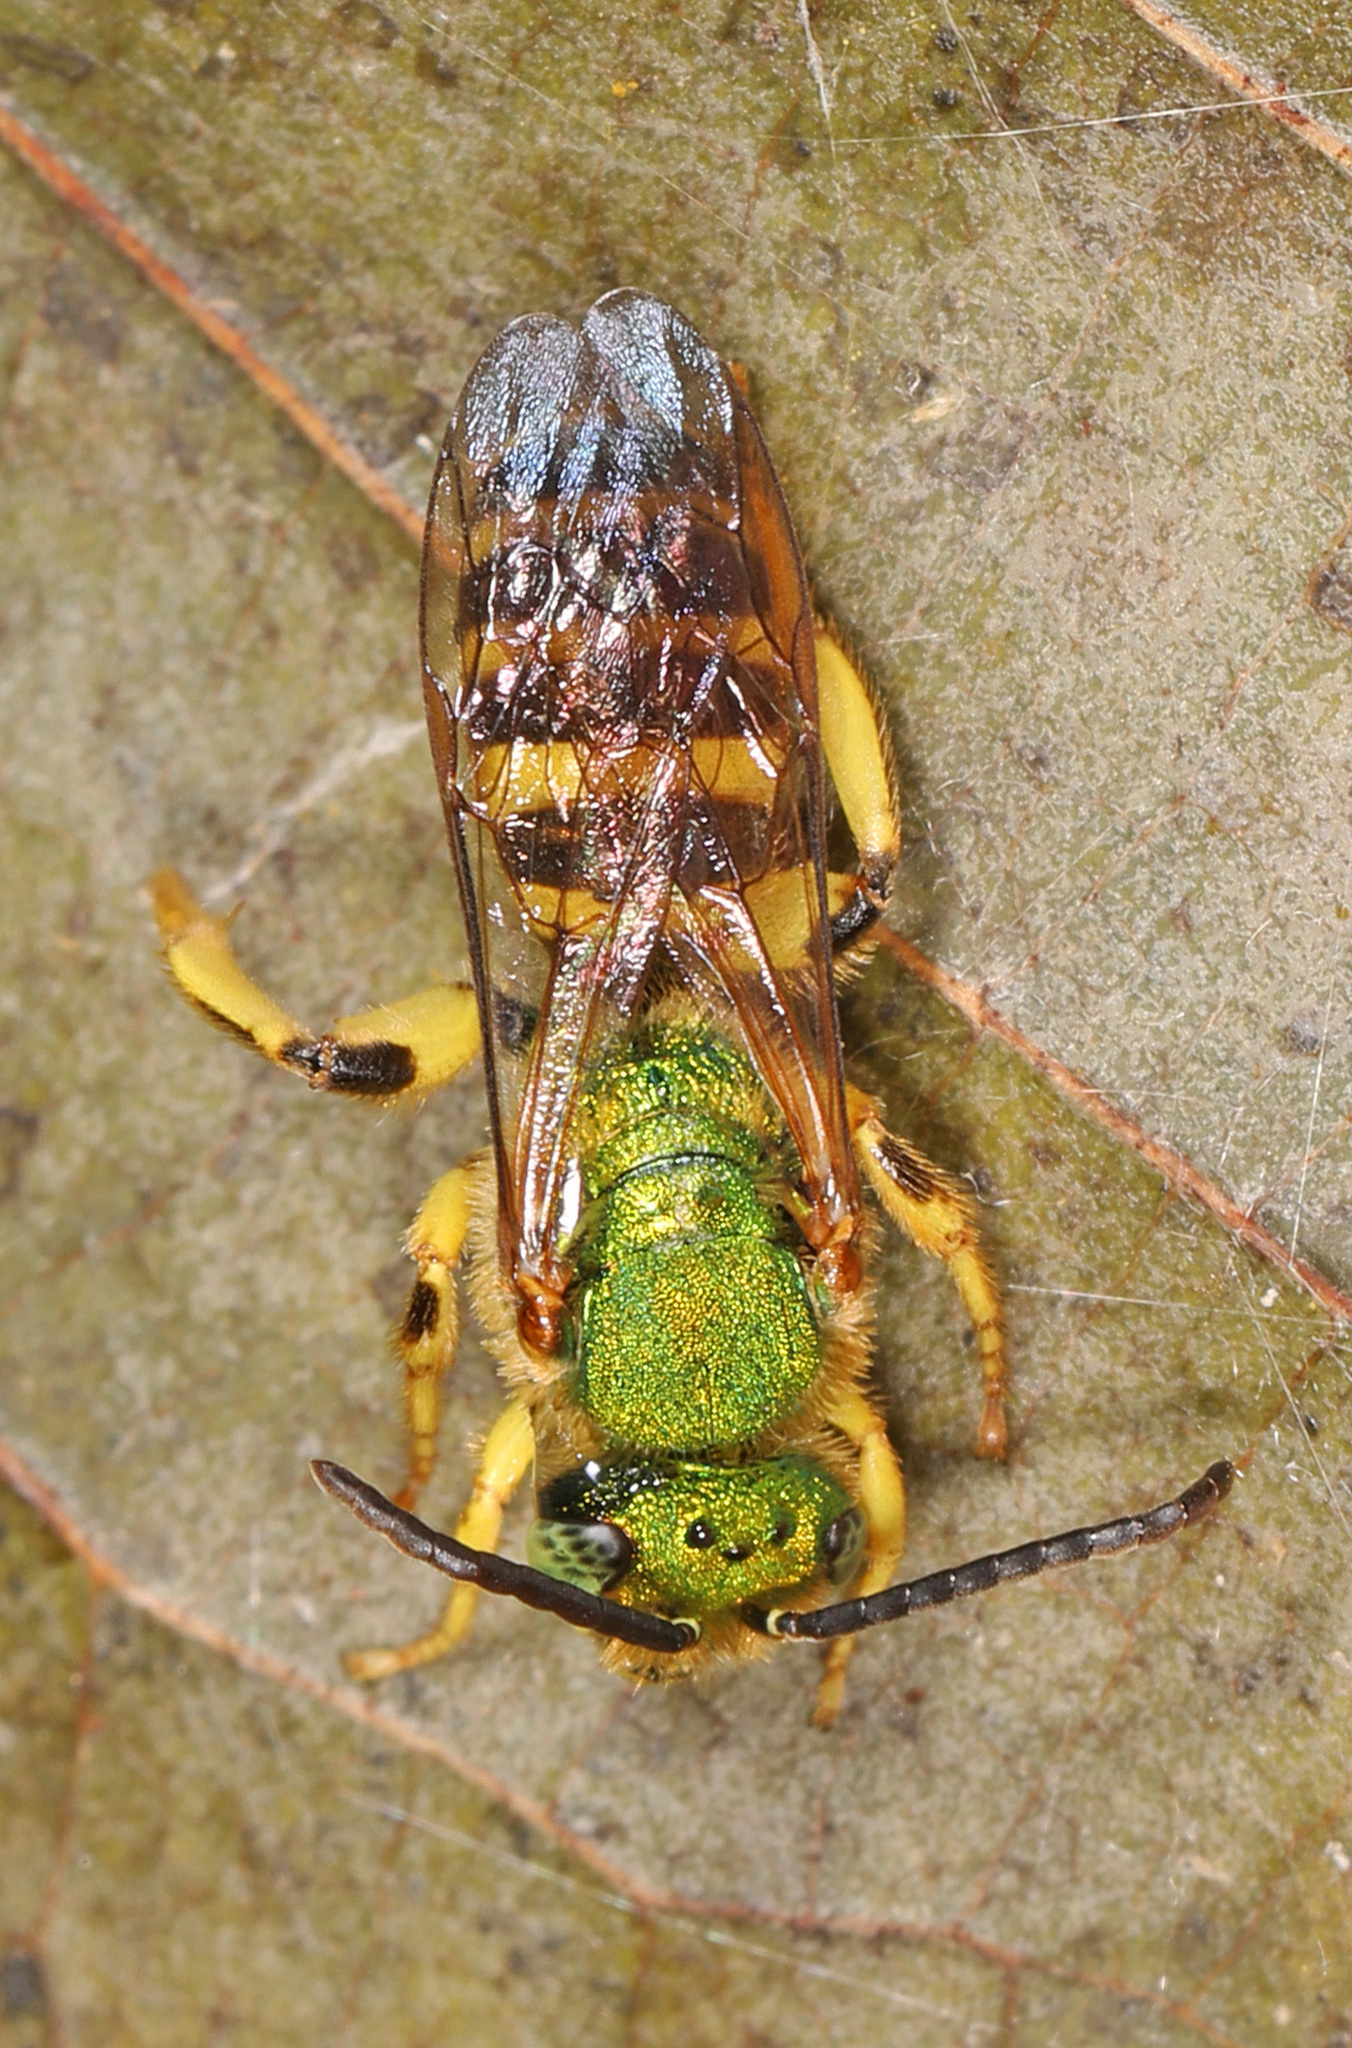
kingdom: Animalia
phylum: Arthropoda
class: Insecta
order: Hymenoptera
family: Halictidae
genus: Agapostemon
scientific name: Agapostemon splendens
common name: Brown-winged striped sweat bee
